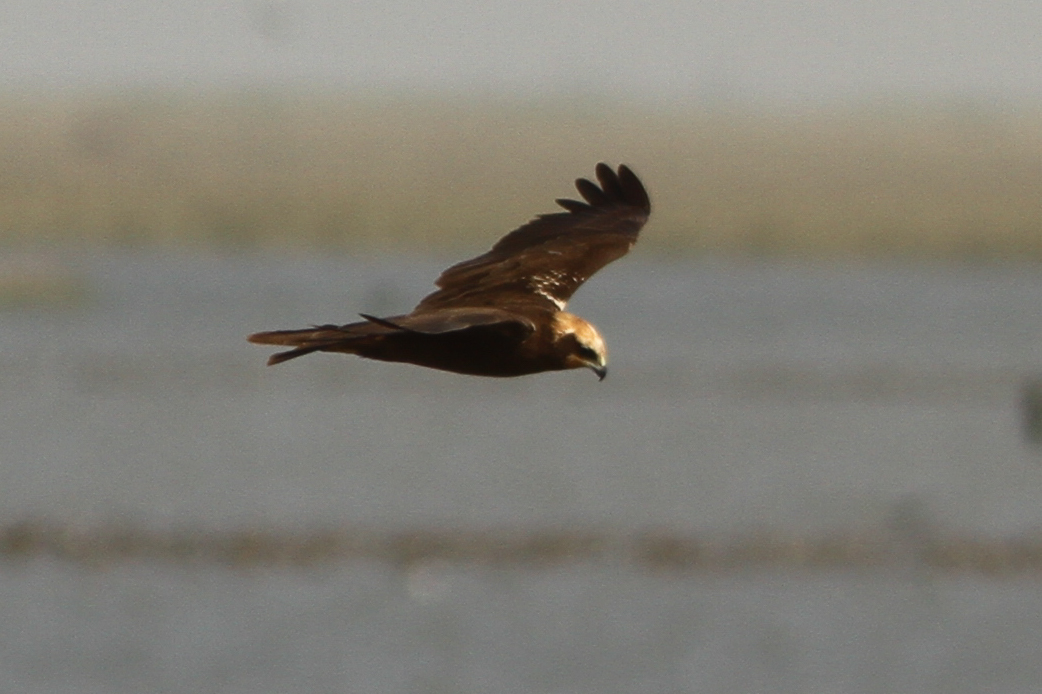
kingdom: Animalia
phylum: Chordata
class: Aves
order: Accipitriformes
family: Accipitridae
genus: Circus
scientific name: Circus aeruginosus
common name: Western marsh harrier
